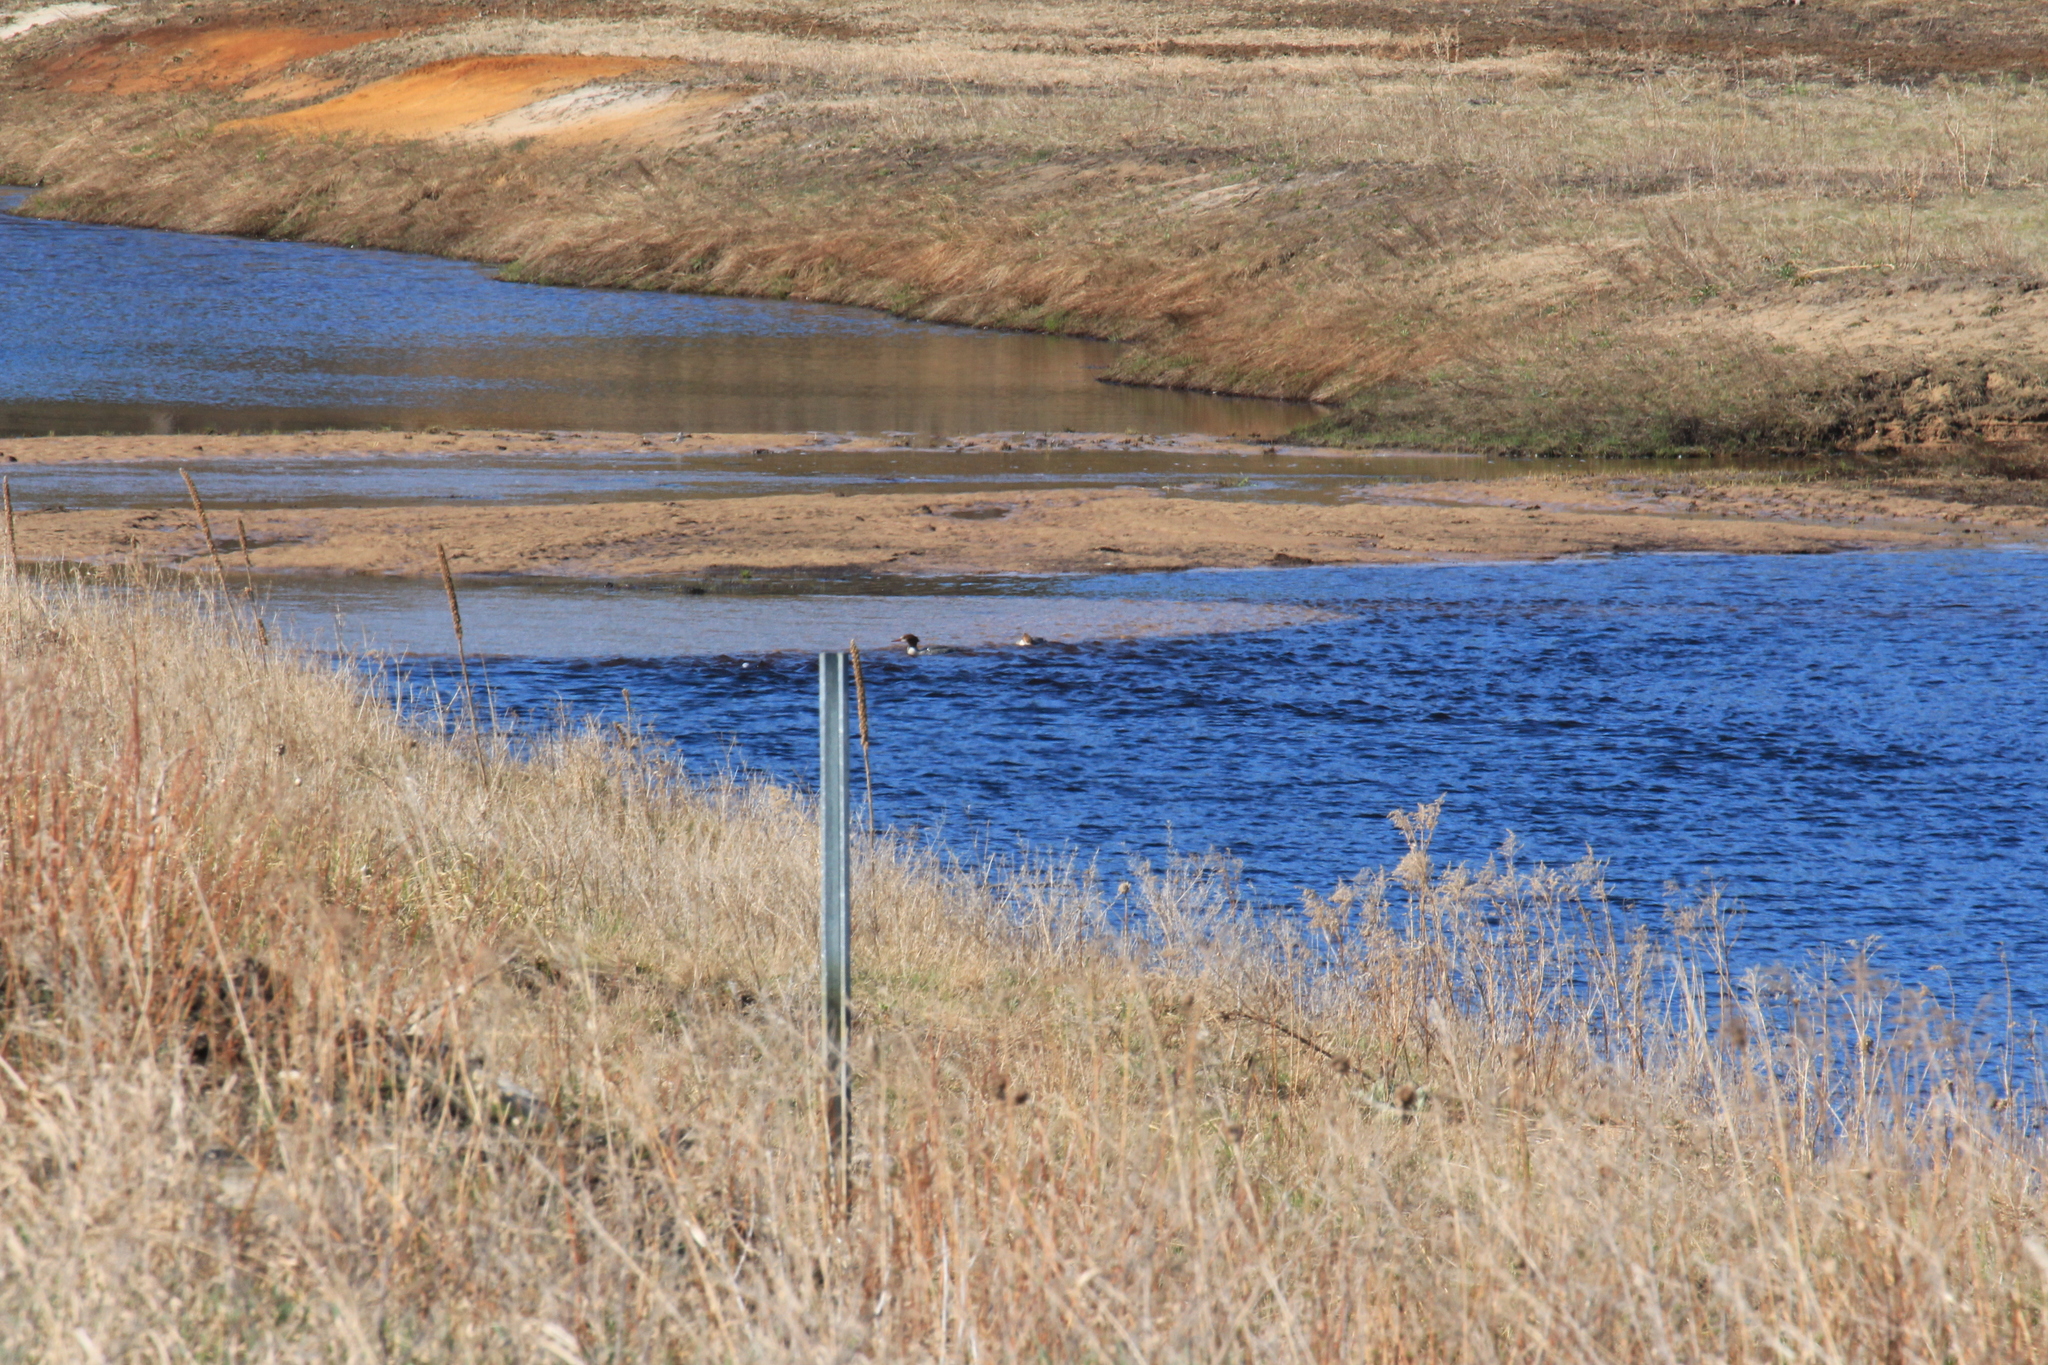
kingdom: Animalia
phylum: Chordata
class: Aves
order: Anseriformes
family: Anatidae
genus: Mergus
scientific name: Mergus merganser
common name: Common merganser
